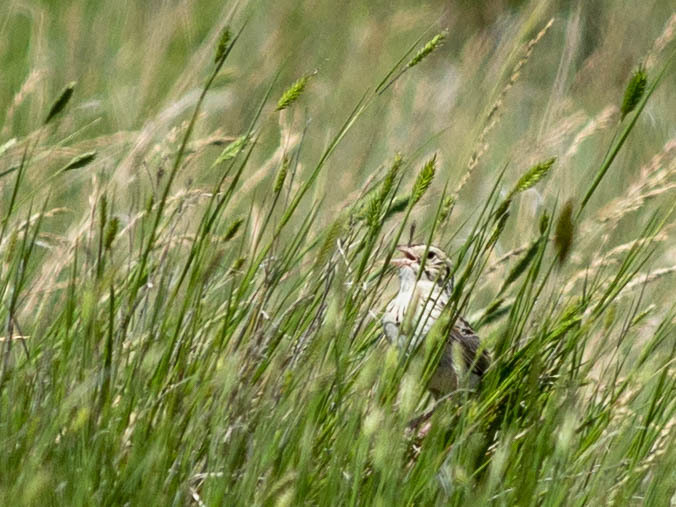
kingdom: Animalia
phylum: Chordata
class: Aves
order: Passeriformes
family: Passerellidae
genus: Centronyx
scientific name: Centronyx bairdii
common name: Baird's sparrow
